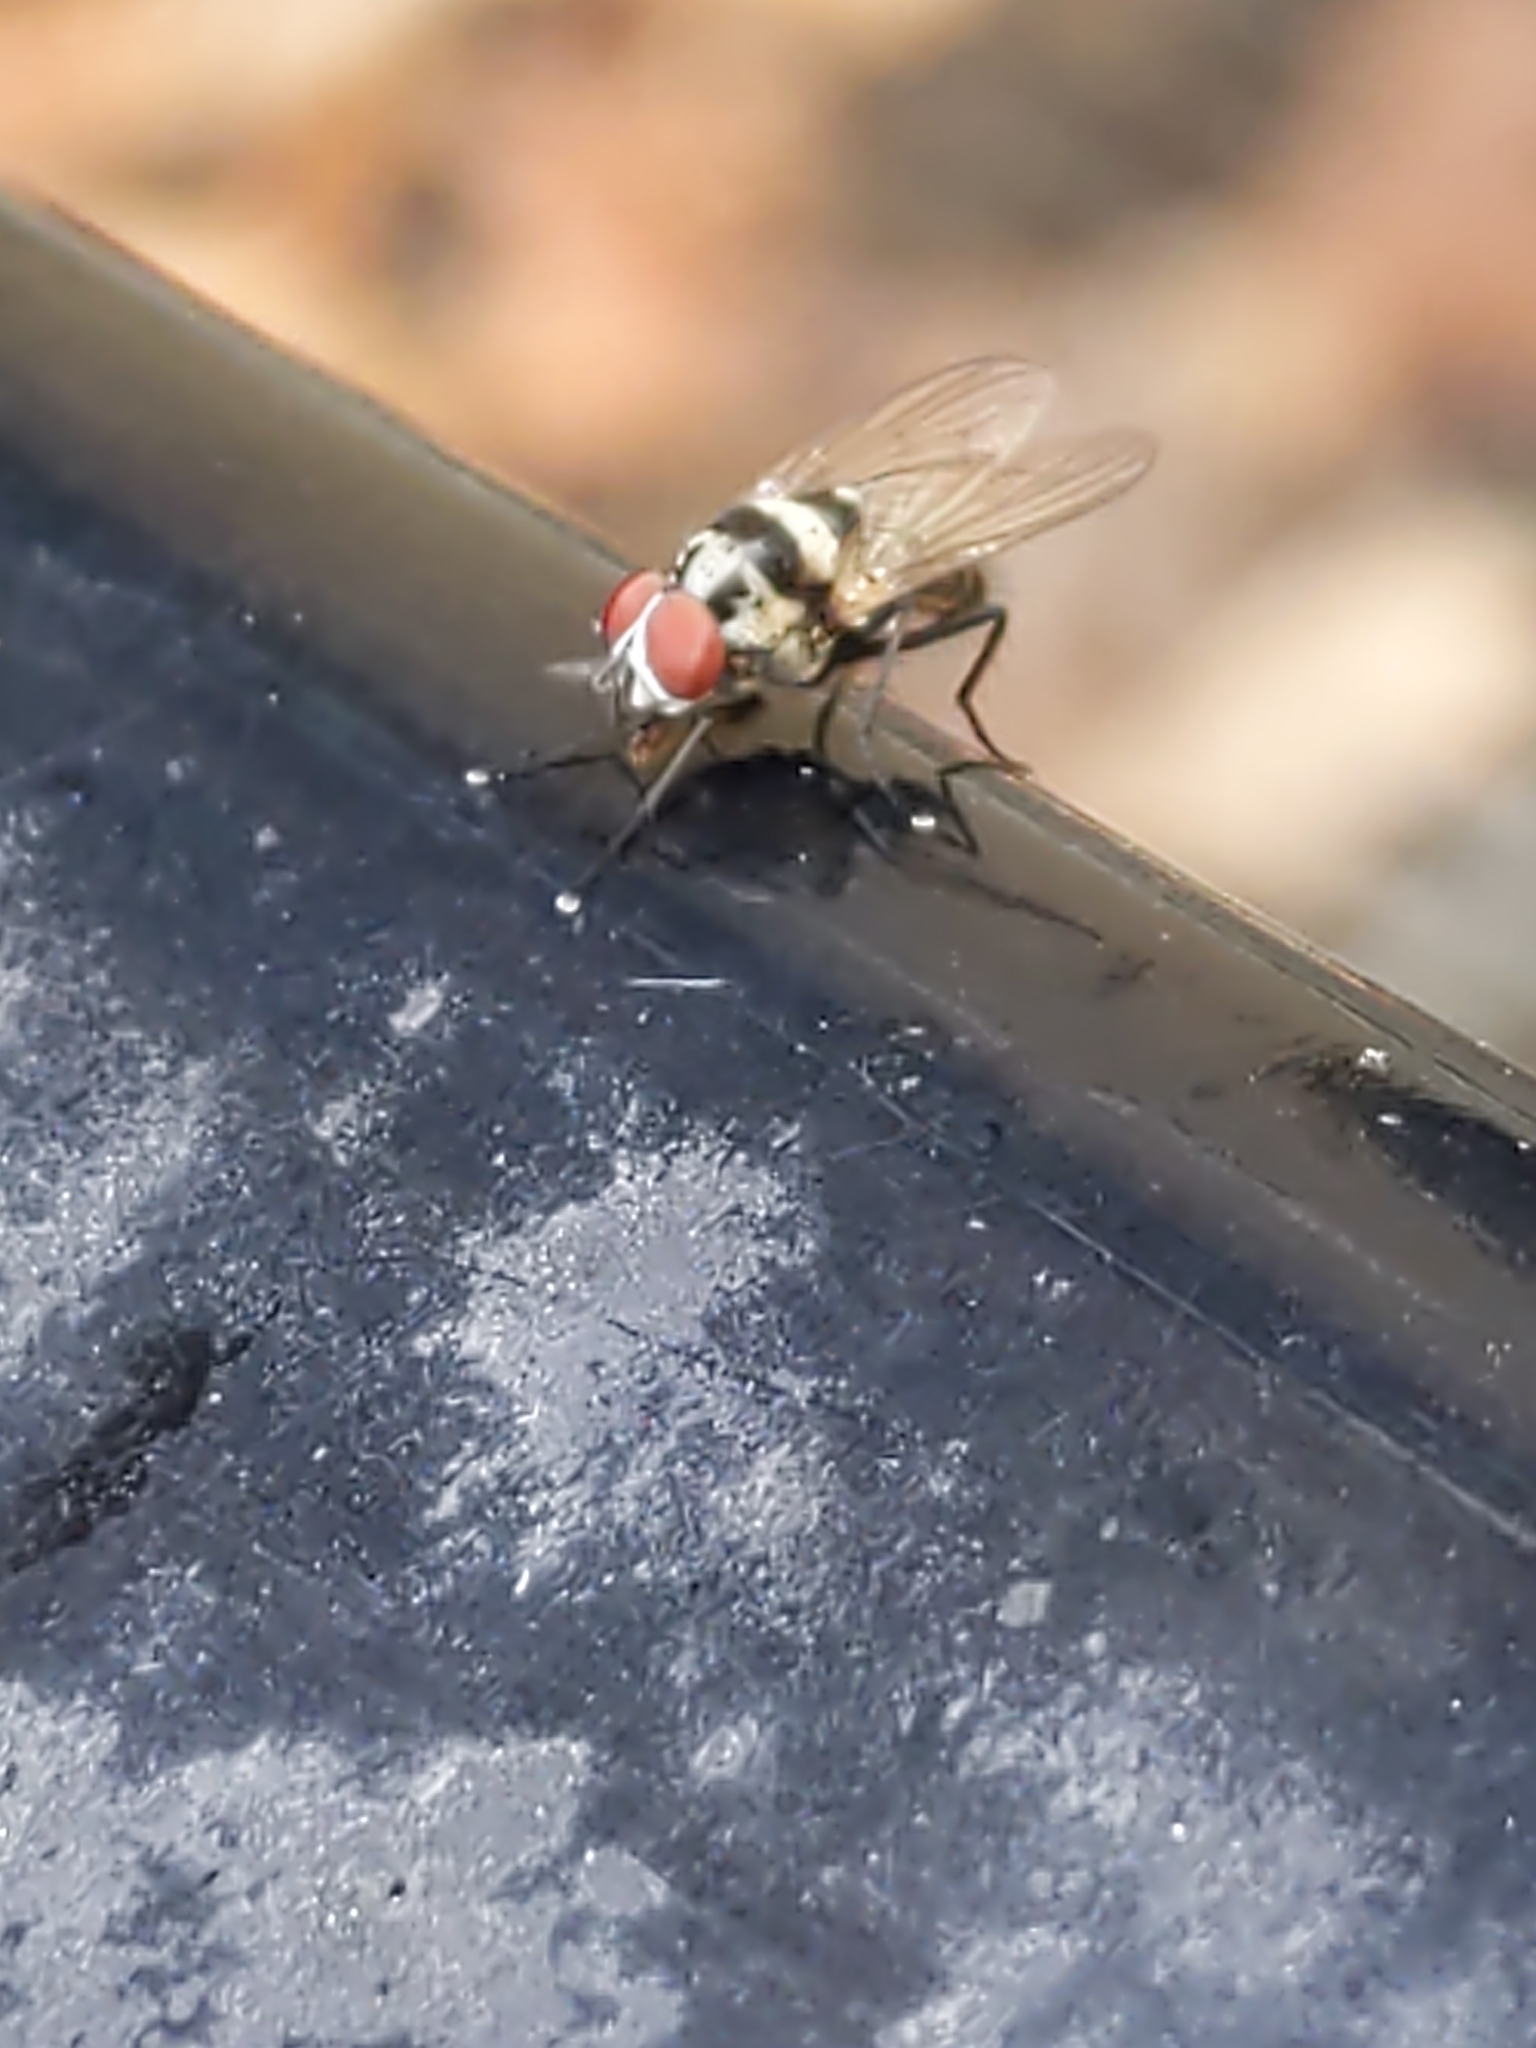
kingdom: Animalia
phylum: Arthropoda
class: Insecta
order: Diptera
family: Anthomyiidae
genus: Anthomyia
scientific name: Anthomyia oculifera
